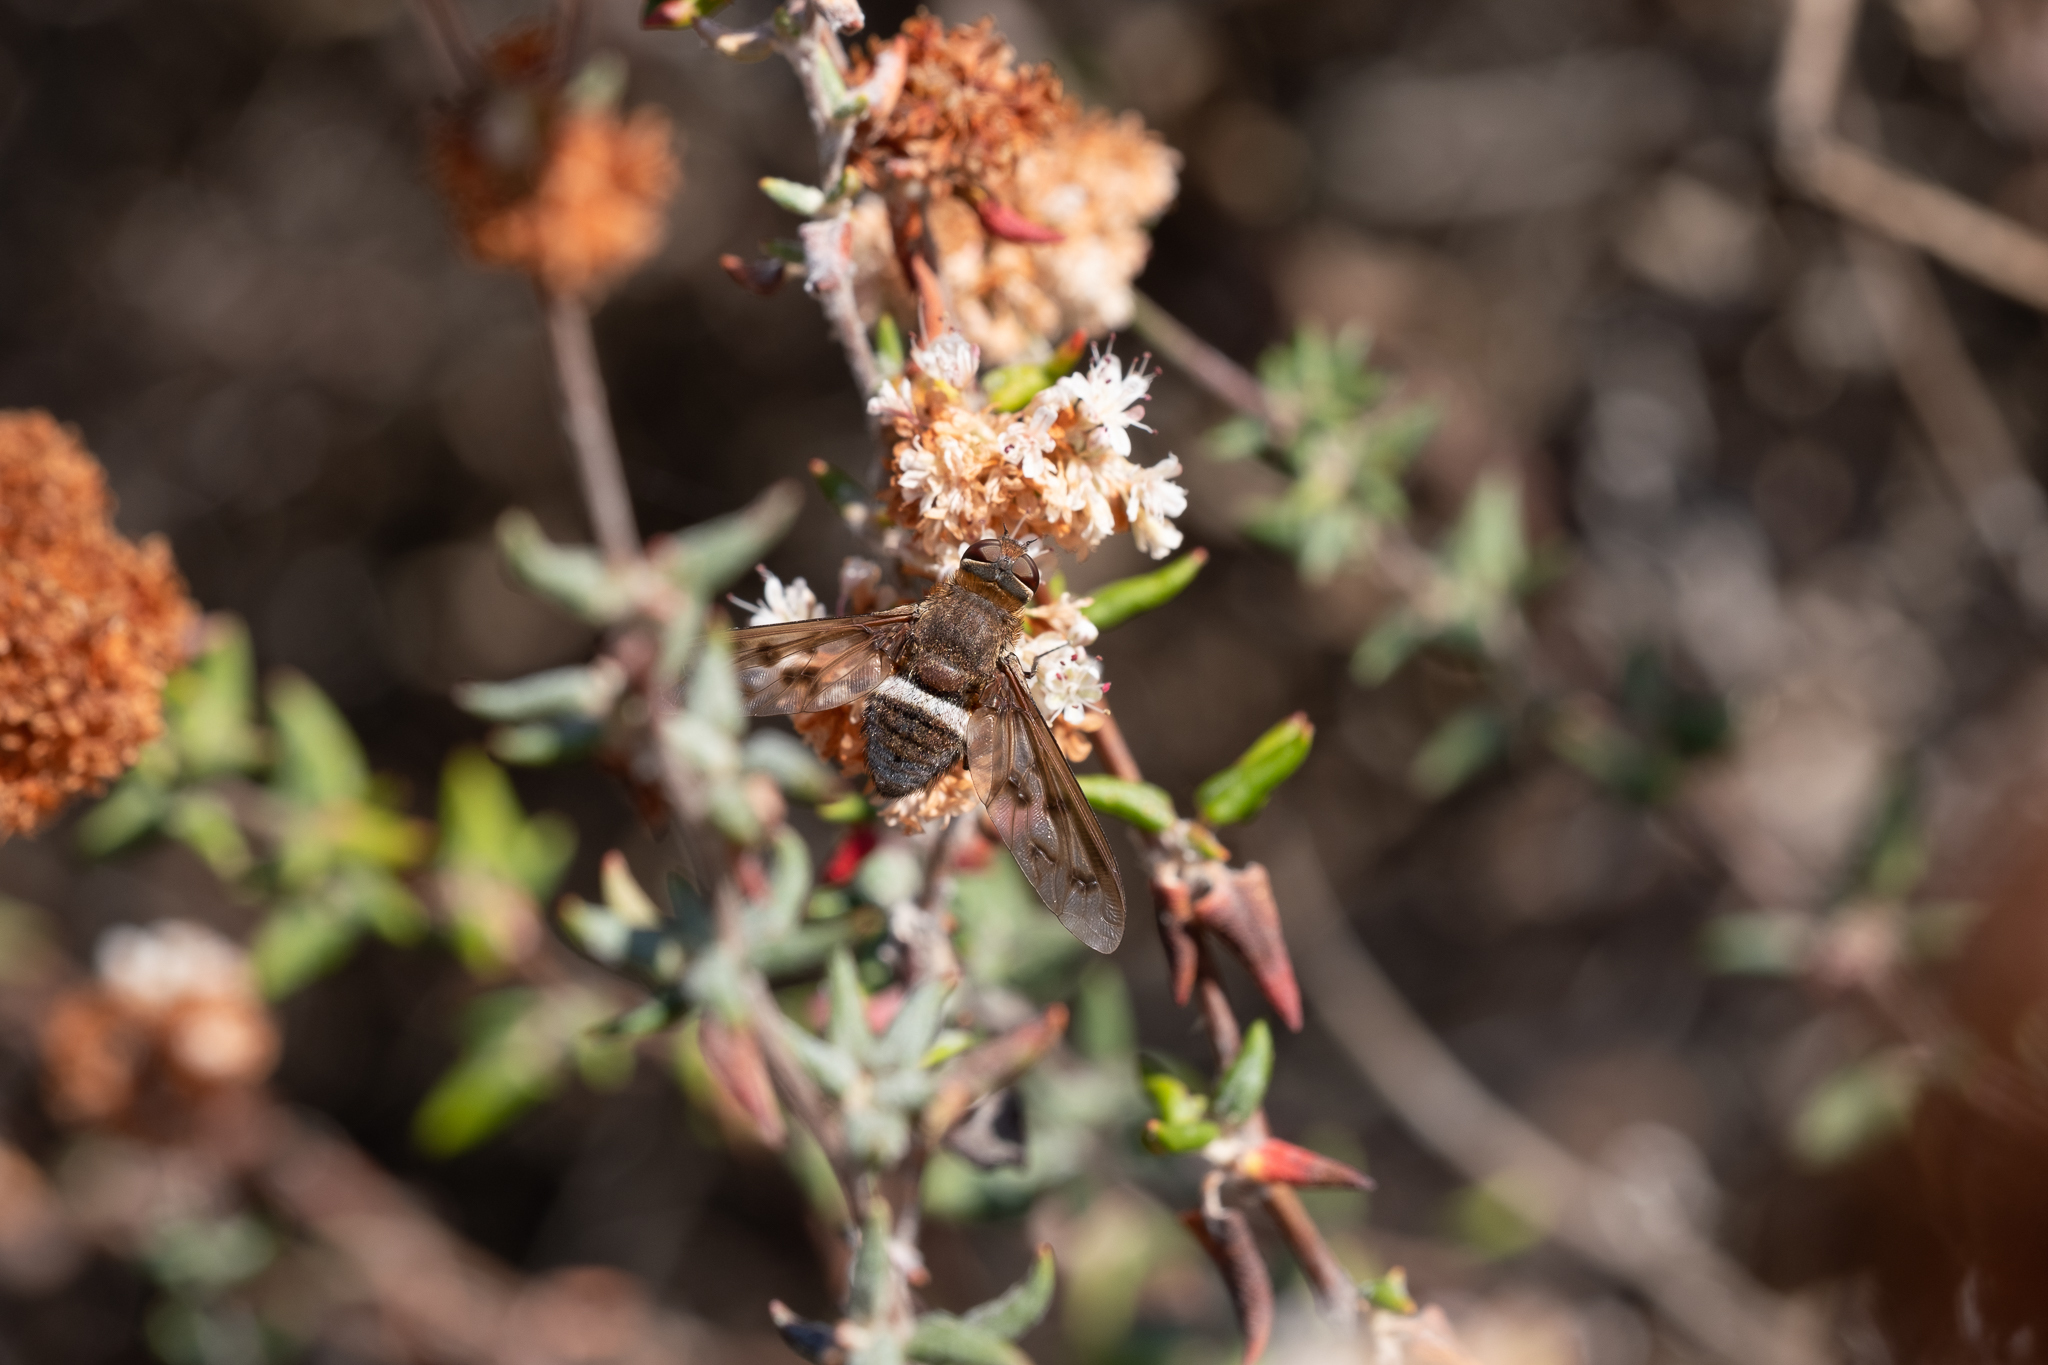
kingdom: Animalia
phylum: Arthropoda
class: Insecta
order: Diptera
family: Bombyliidae
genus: Nyia
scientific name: Nyia gazophylax
